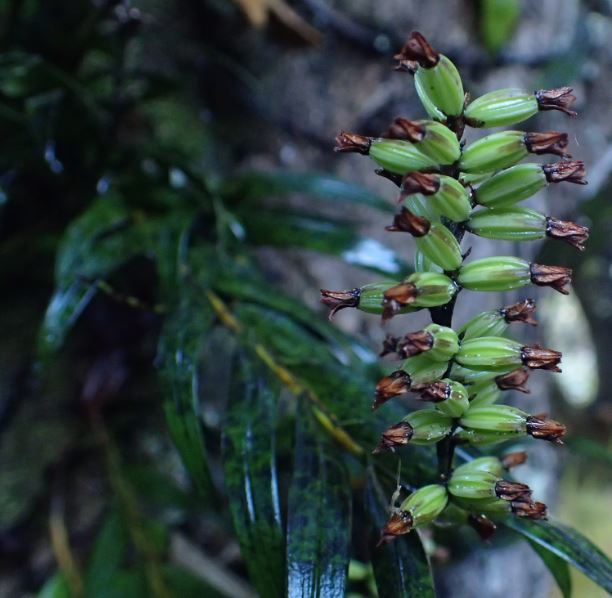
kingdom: Plantae
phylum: Tracheophyta
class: Liliopsida
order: Asparagales
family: Orchidaceae
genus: Earina
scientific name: Earina autumnalis
